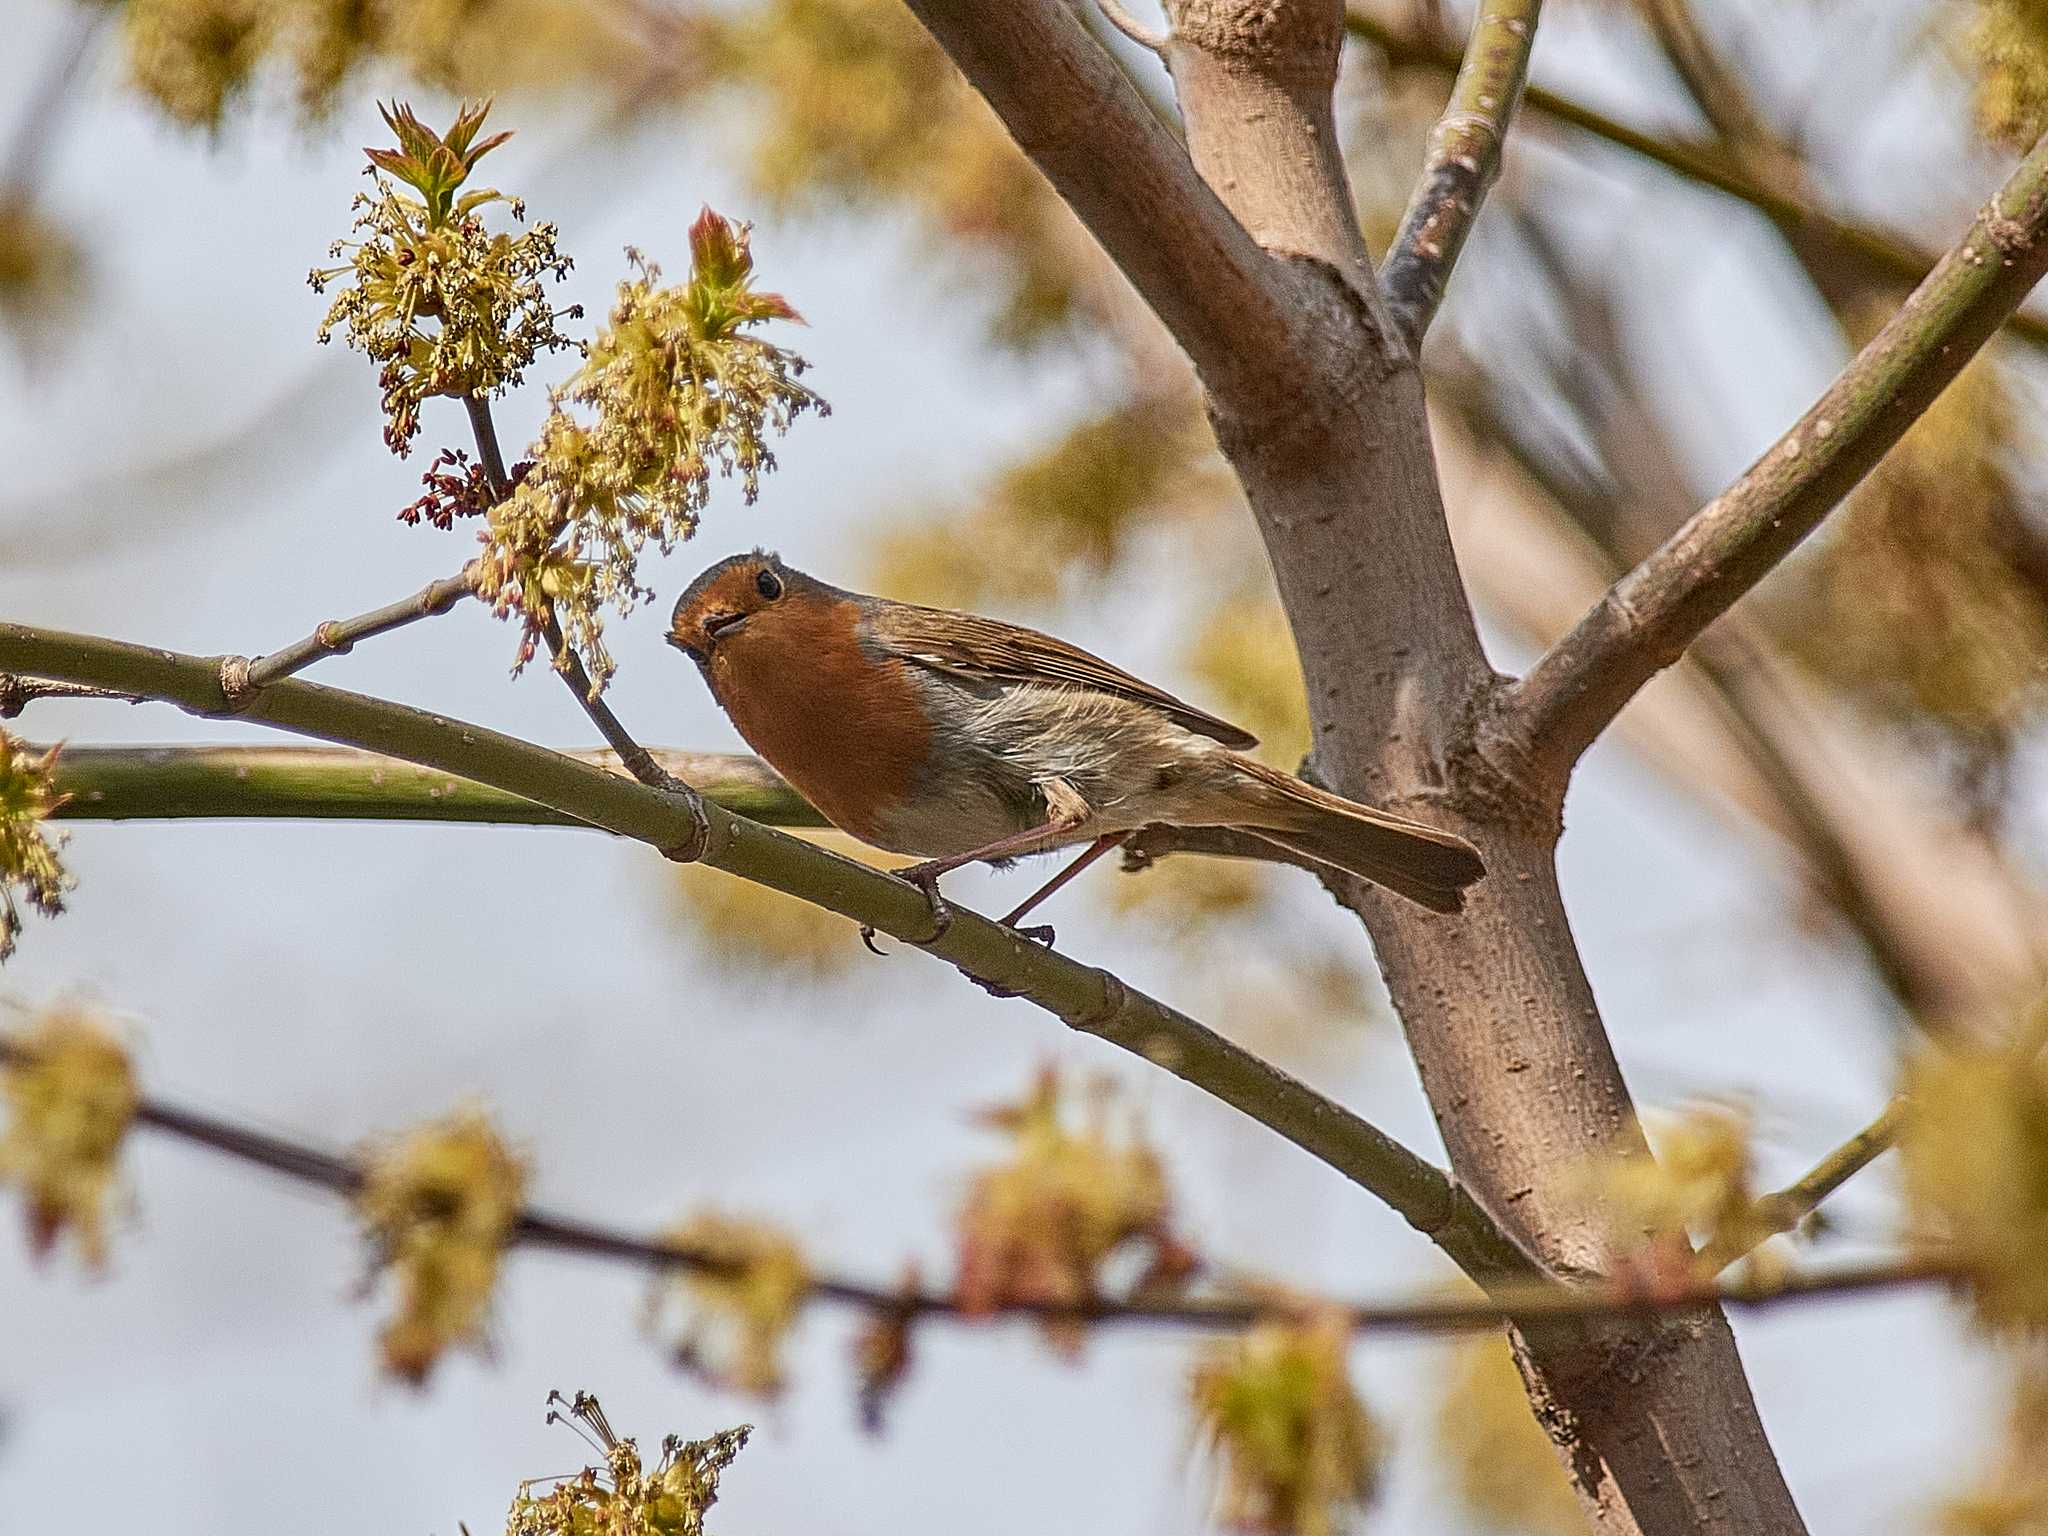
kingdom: Animalia
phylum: Chordata
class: Aves
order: Passeriformes
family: Muscicapidae
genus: Erithacus
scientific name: Erithacus rubecula
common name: European robin
